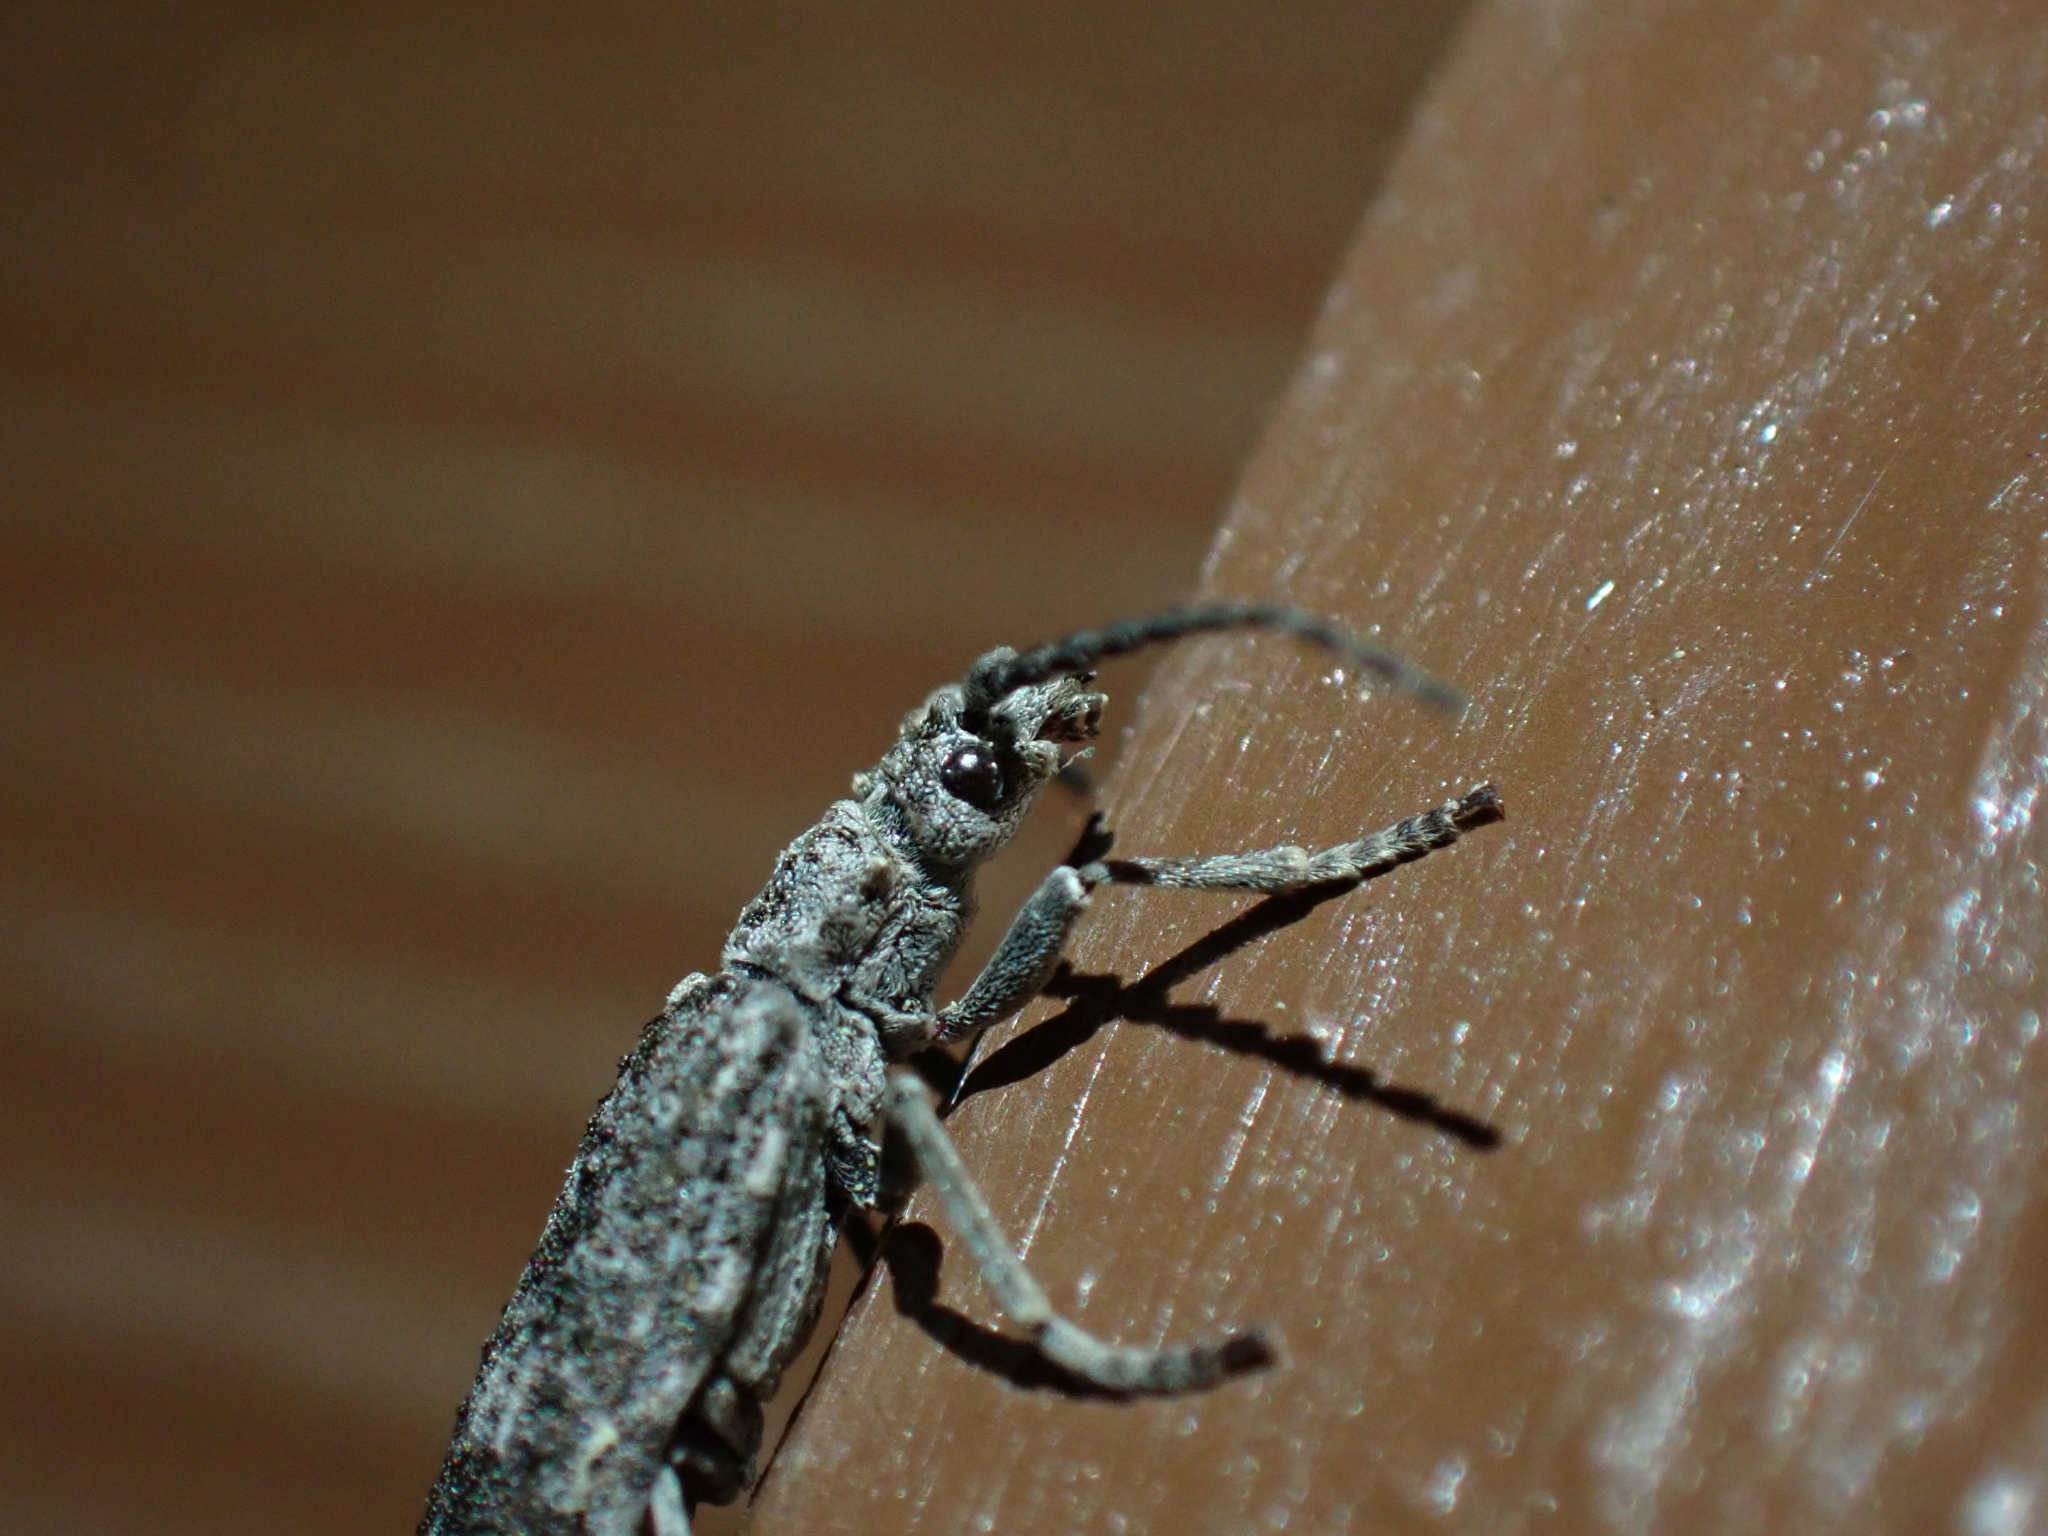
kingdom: Animalia
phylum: Arthropoda
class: Insecta
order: Coleoptera
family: Cupedidae
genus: Priacma
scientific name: Priacma serrata
